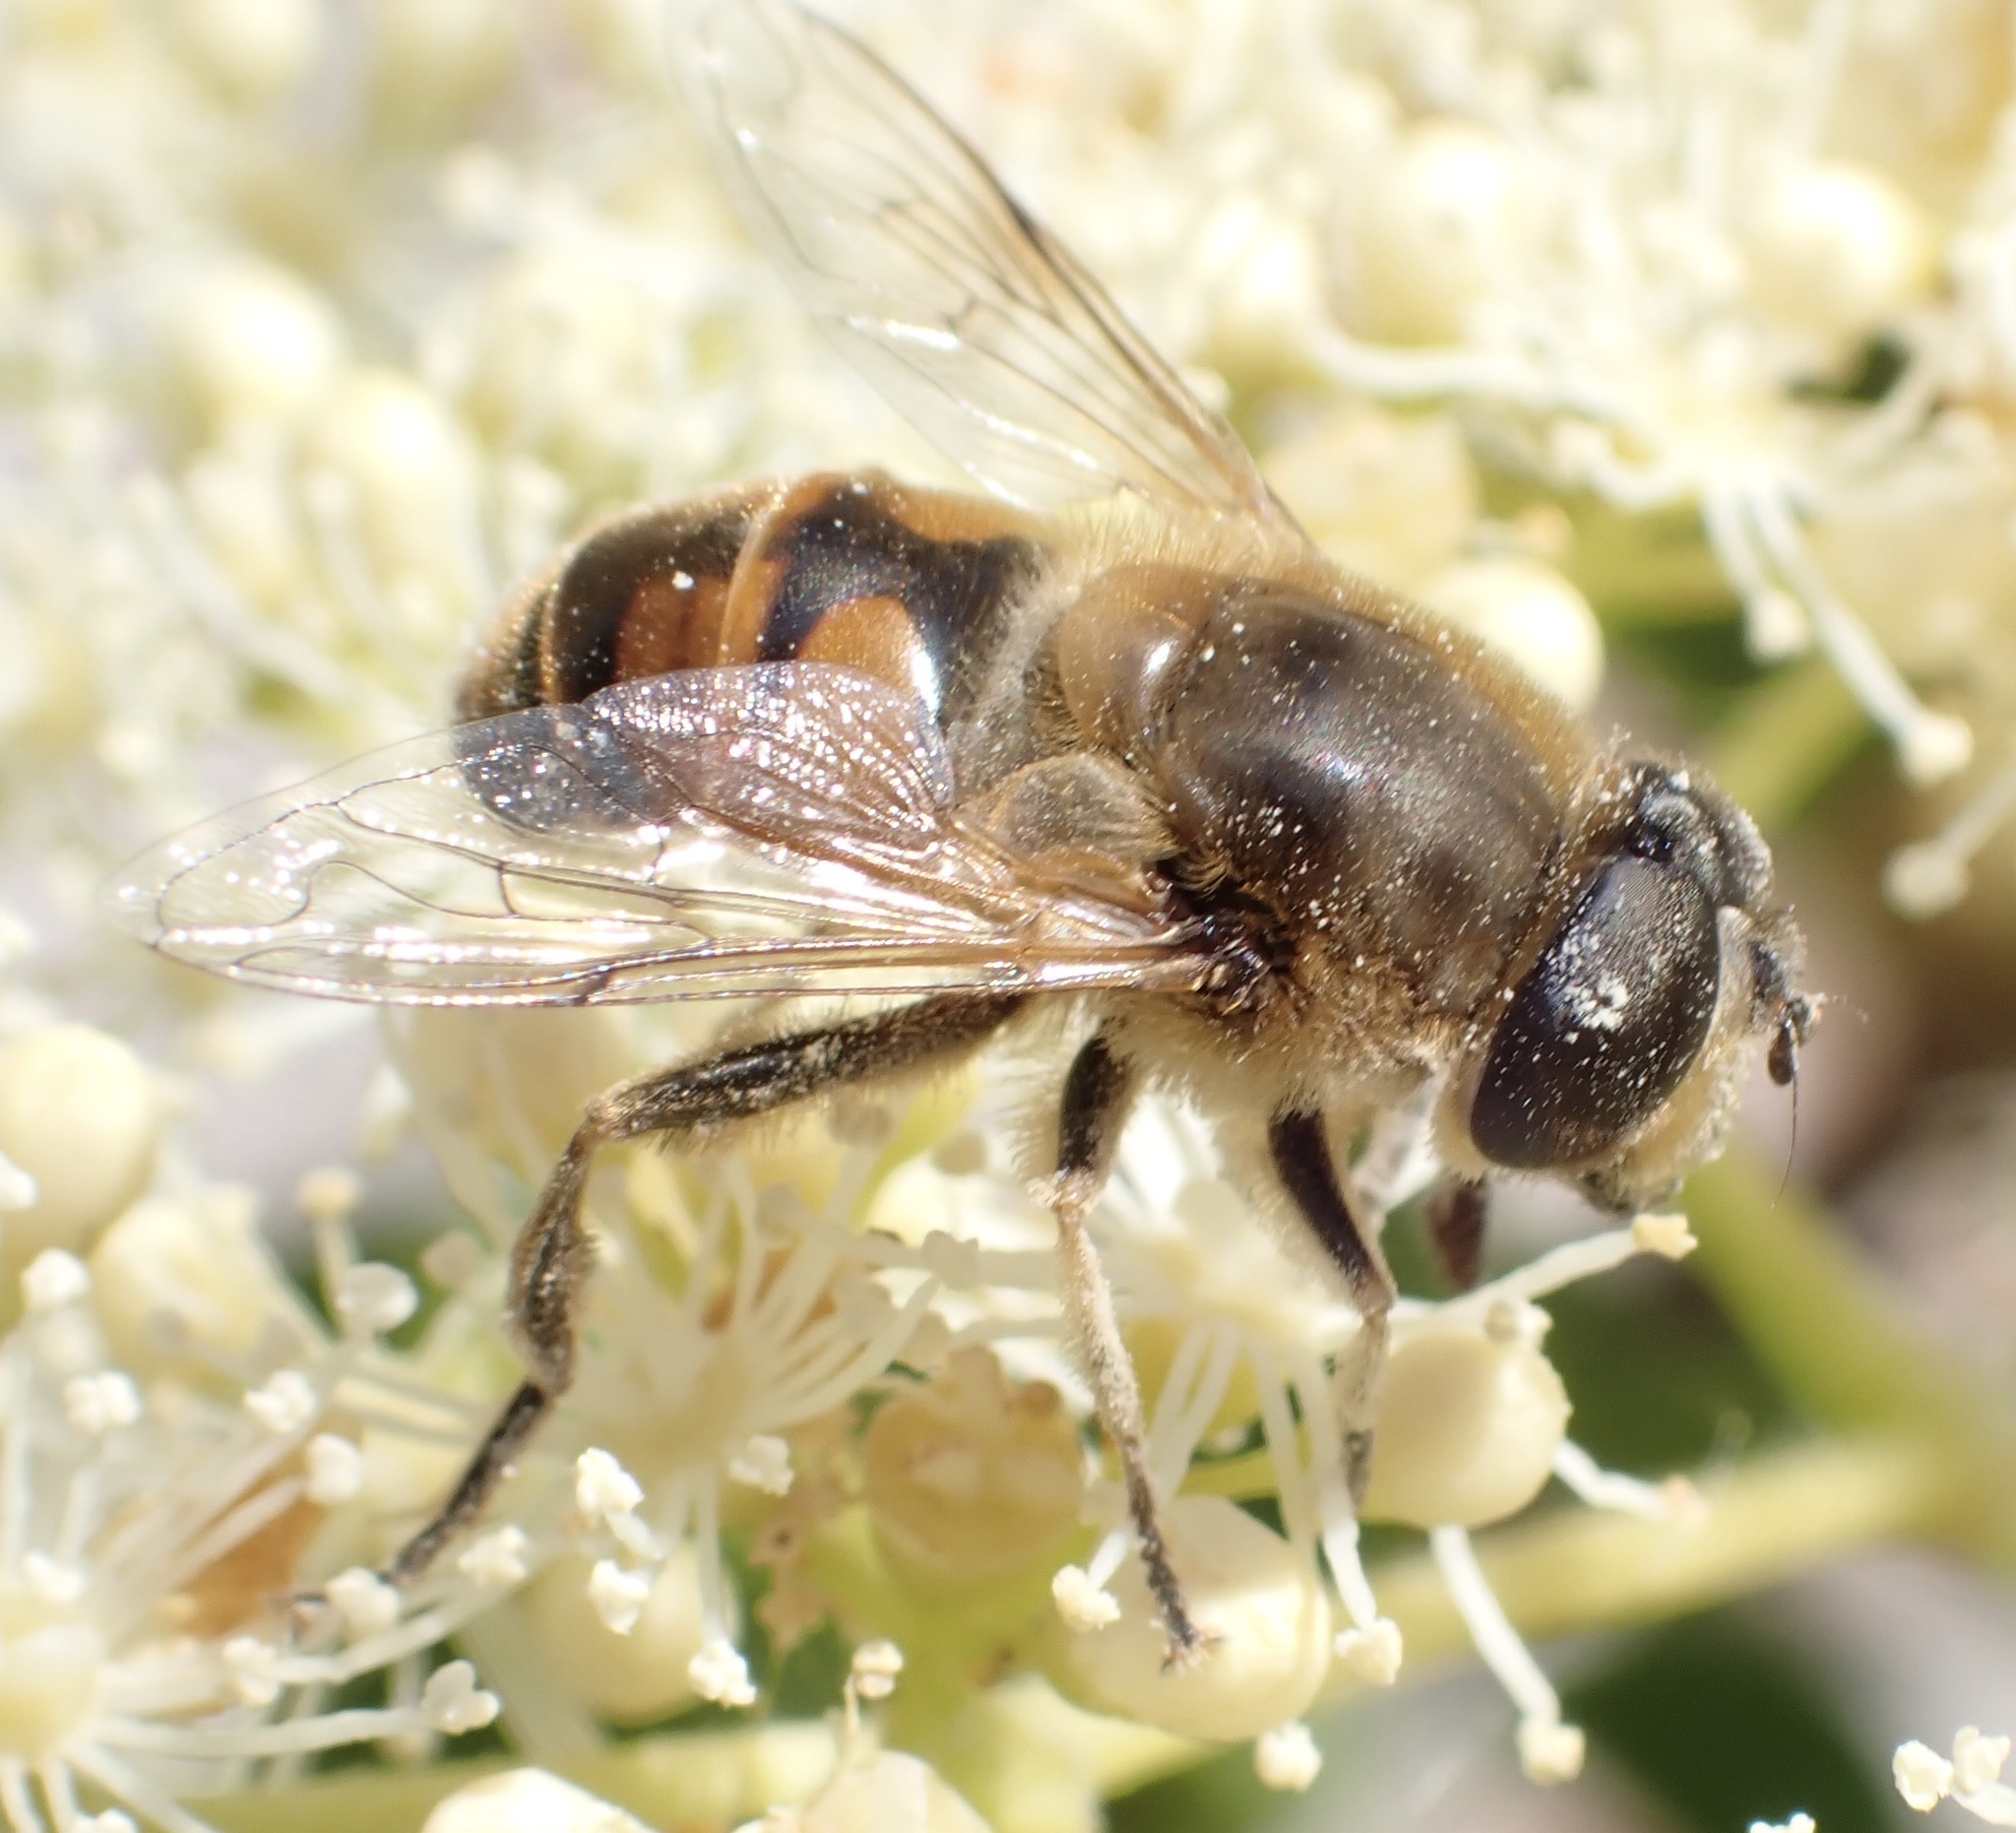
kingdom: Animalia
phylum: Arthropoda
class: Insecta
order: Diptera
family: Syrphidae
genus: Eristalis
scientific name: Eristalis tenax
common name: Drone fly
